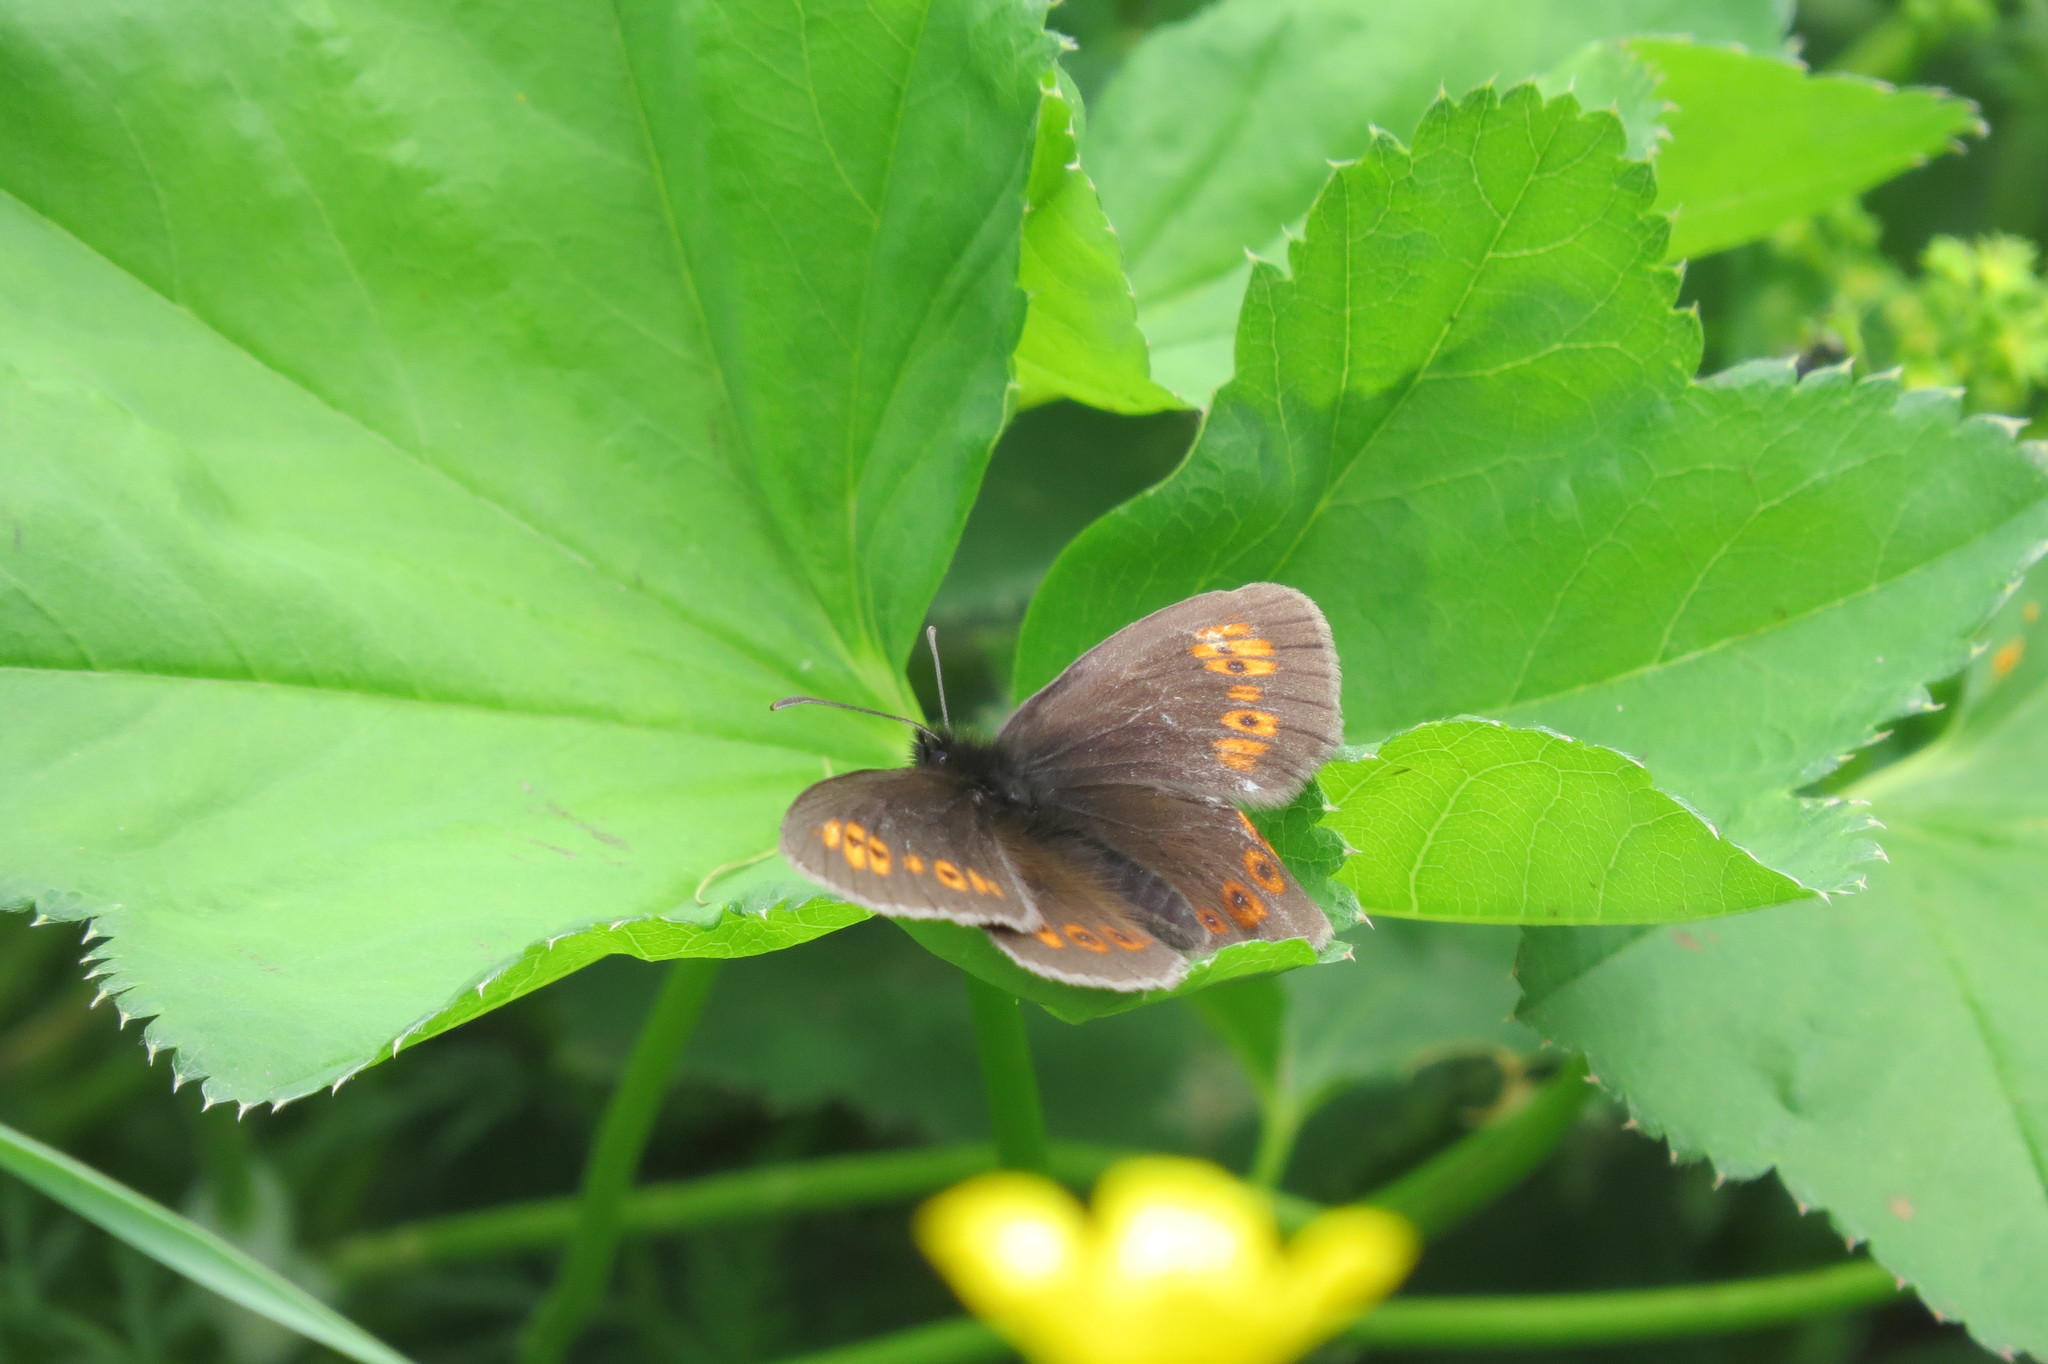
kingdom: Animalia
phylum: Arthropoda
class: Insecta
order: Lepidoptera
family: Nymphalidae
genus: Erebia
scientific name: Erebia alberganus
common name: Almond-eyed ringlet
